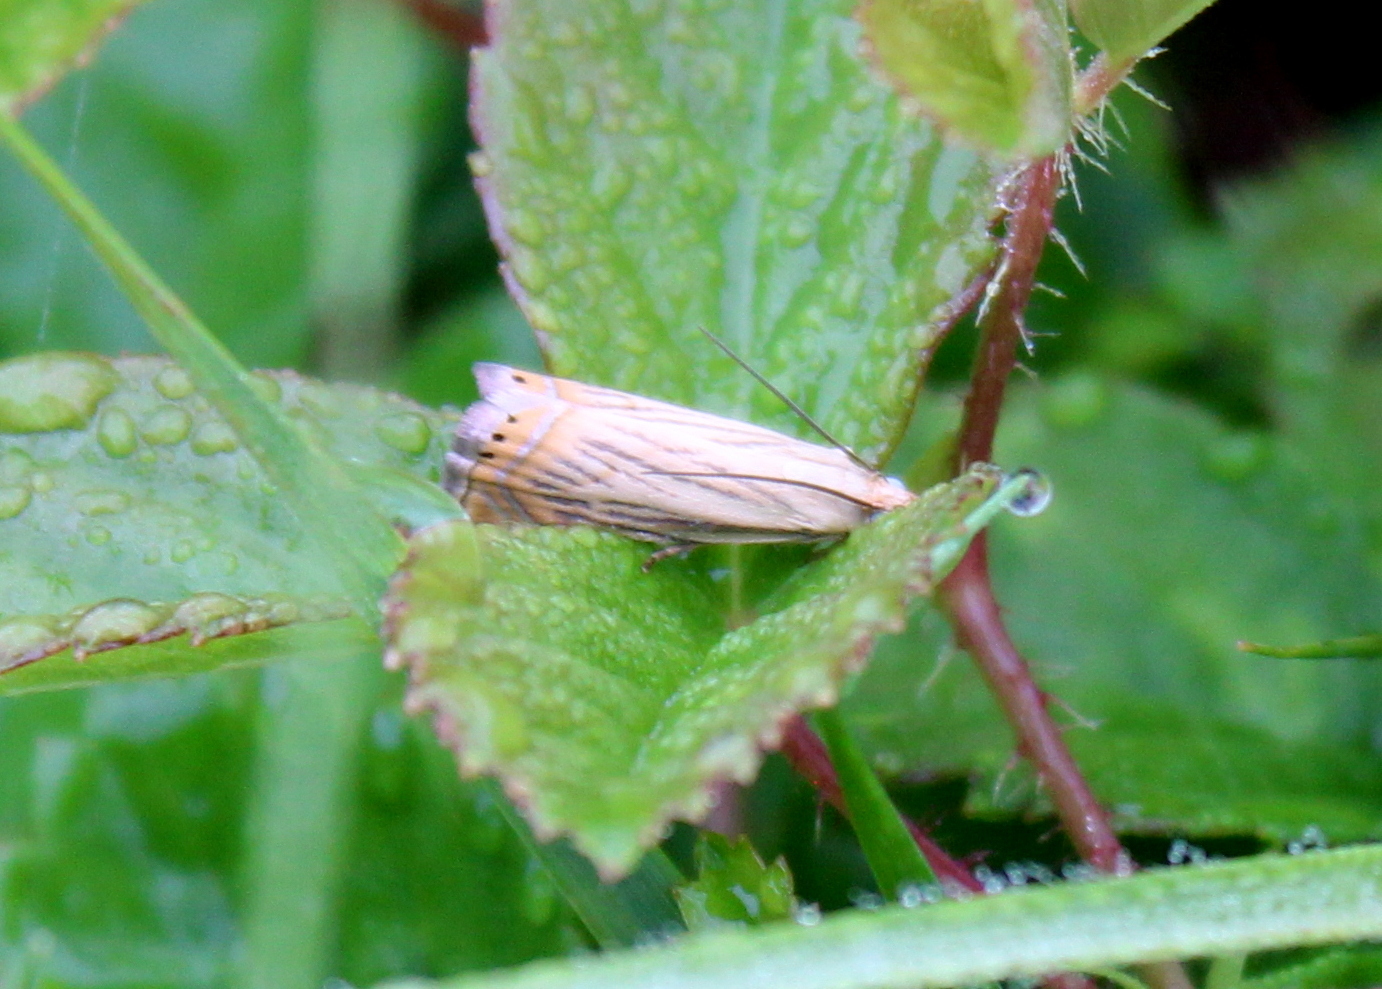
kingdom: Animalia
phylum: Arthropoda
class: Insecta
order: Lepidoptera
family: Crambidae
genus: Chrysoteuchia
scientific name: Chrysoteuchia topiarius
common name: Topiary grass-veneer
